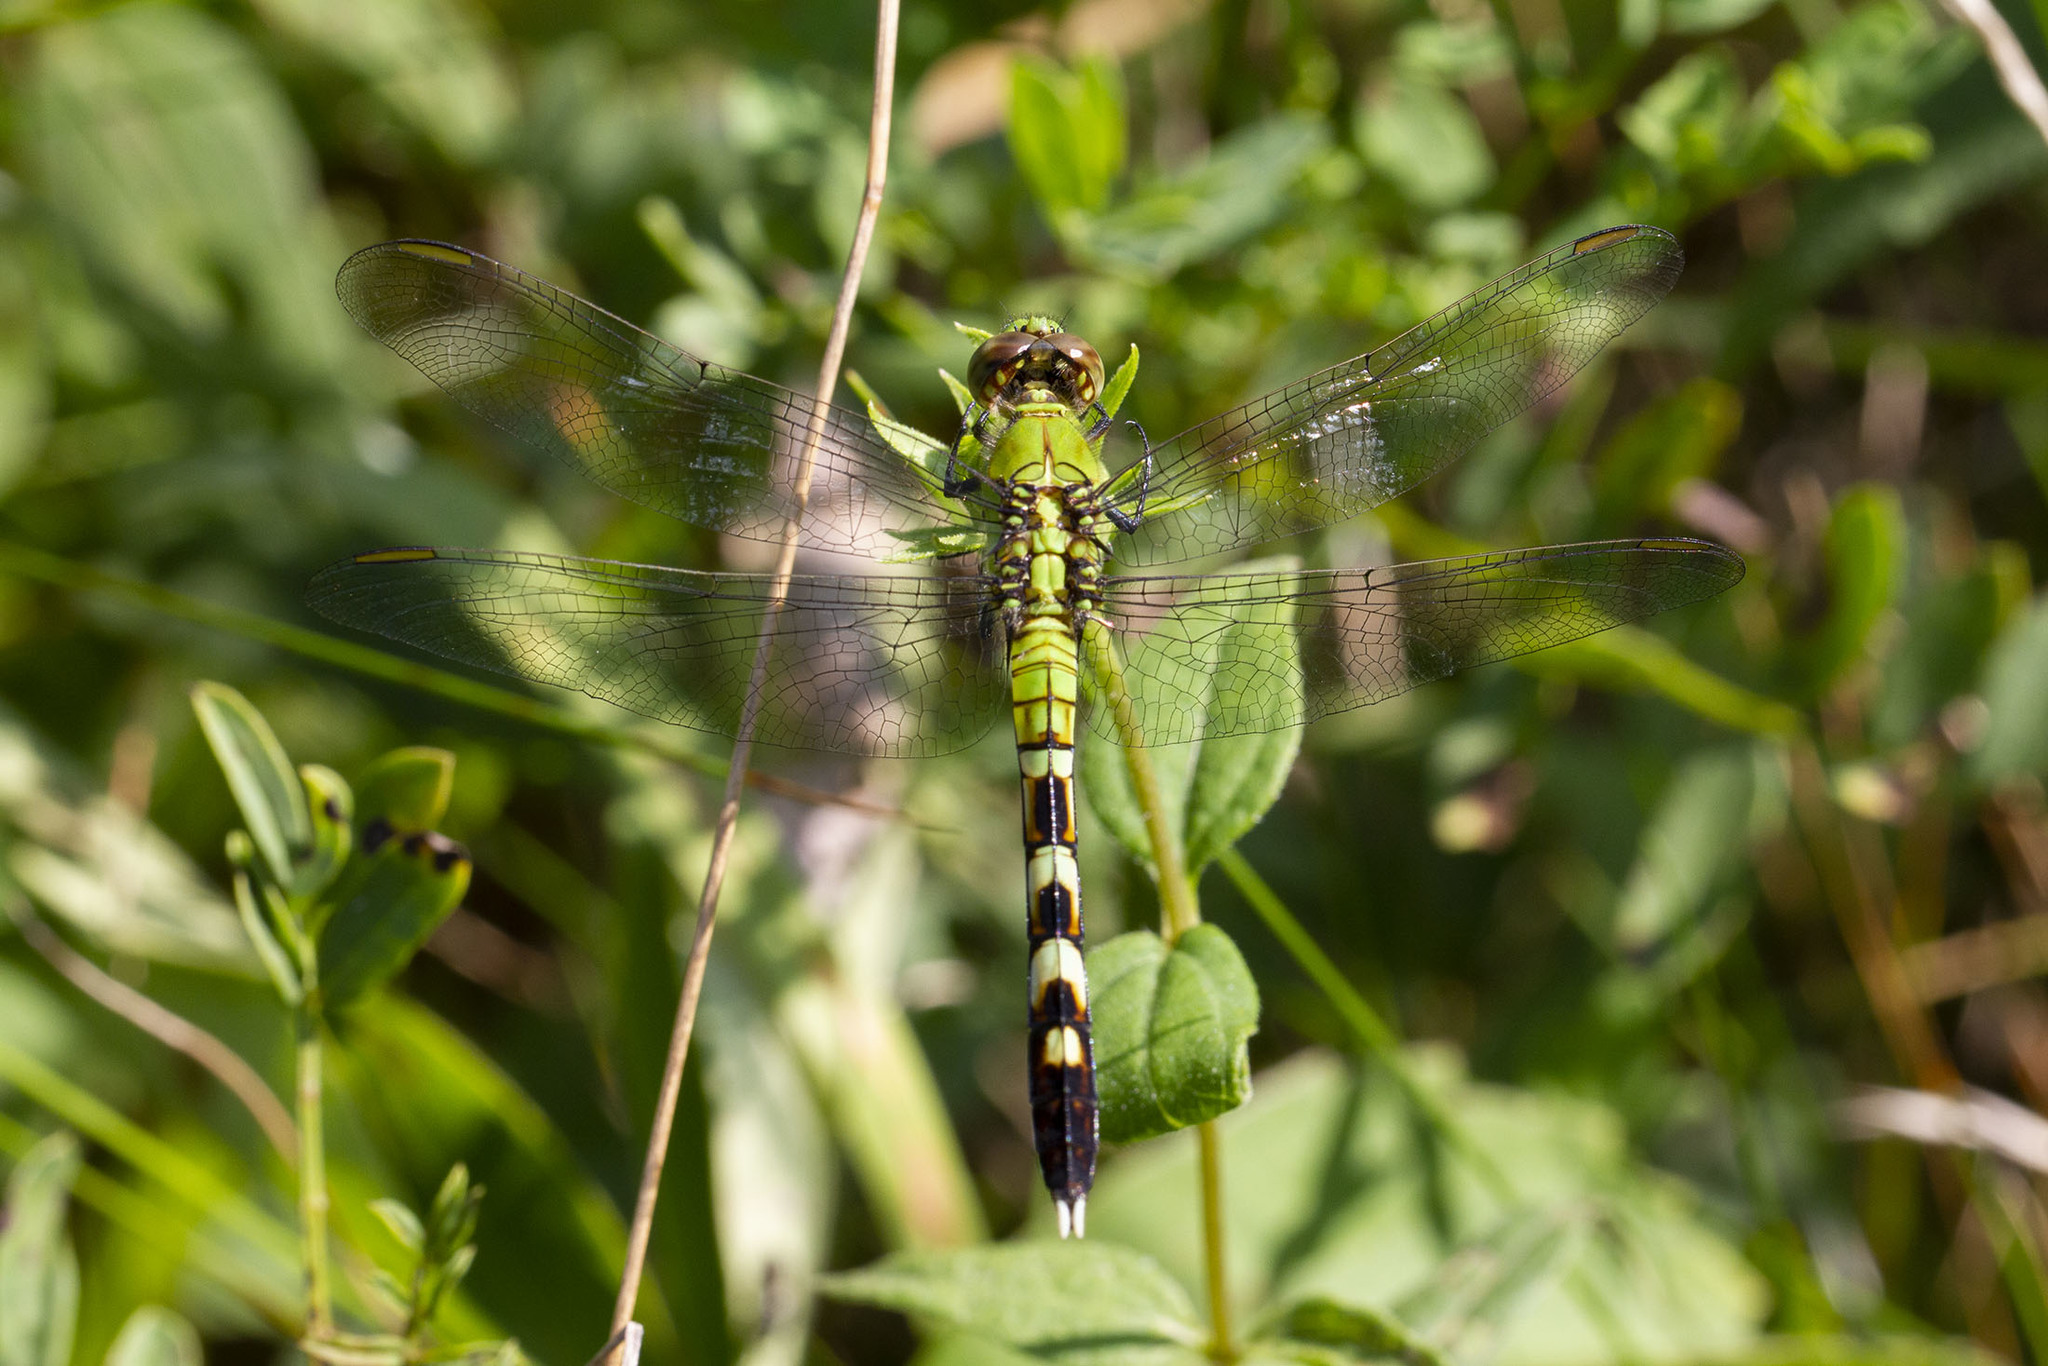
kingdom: Animalia
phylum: Arthropoda
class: Insecta
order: Odonata
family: Libellulidae
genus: Erythemis
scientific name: Erythemis simplicicollis
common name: Eastern pondhawk
